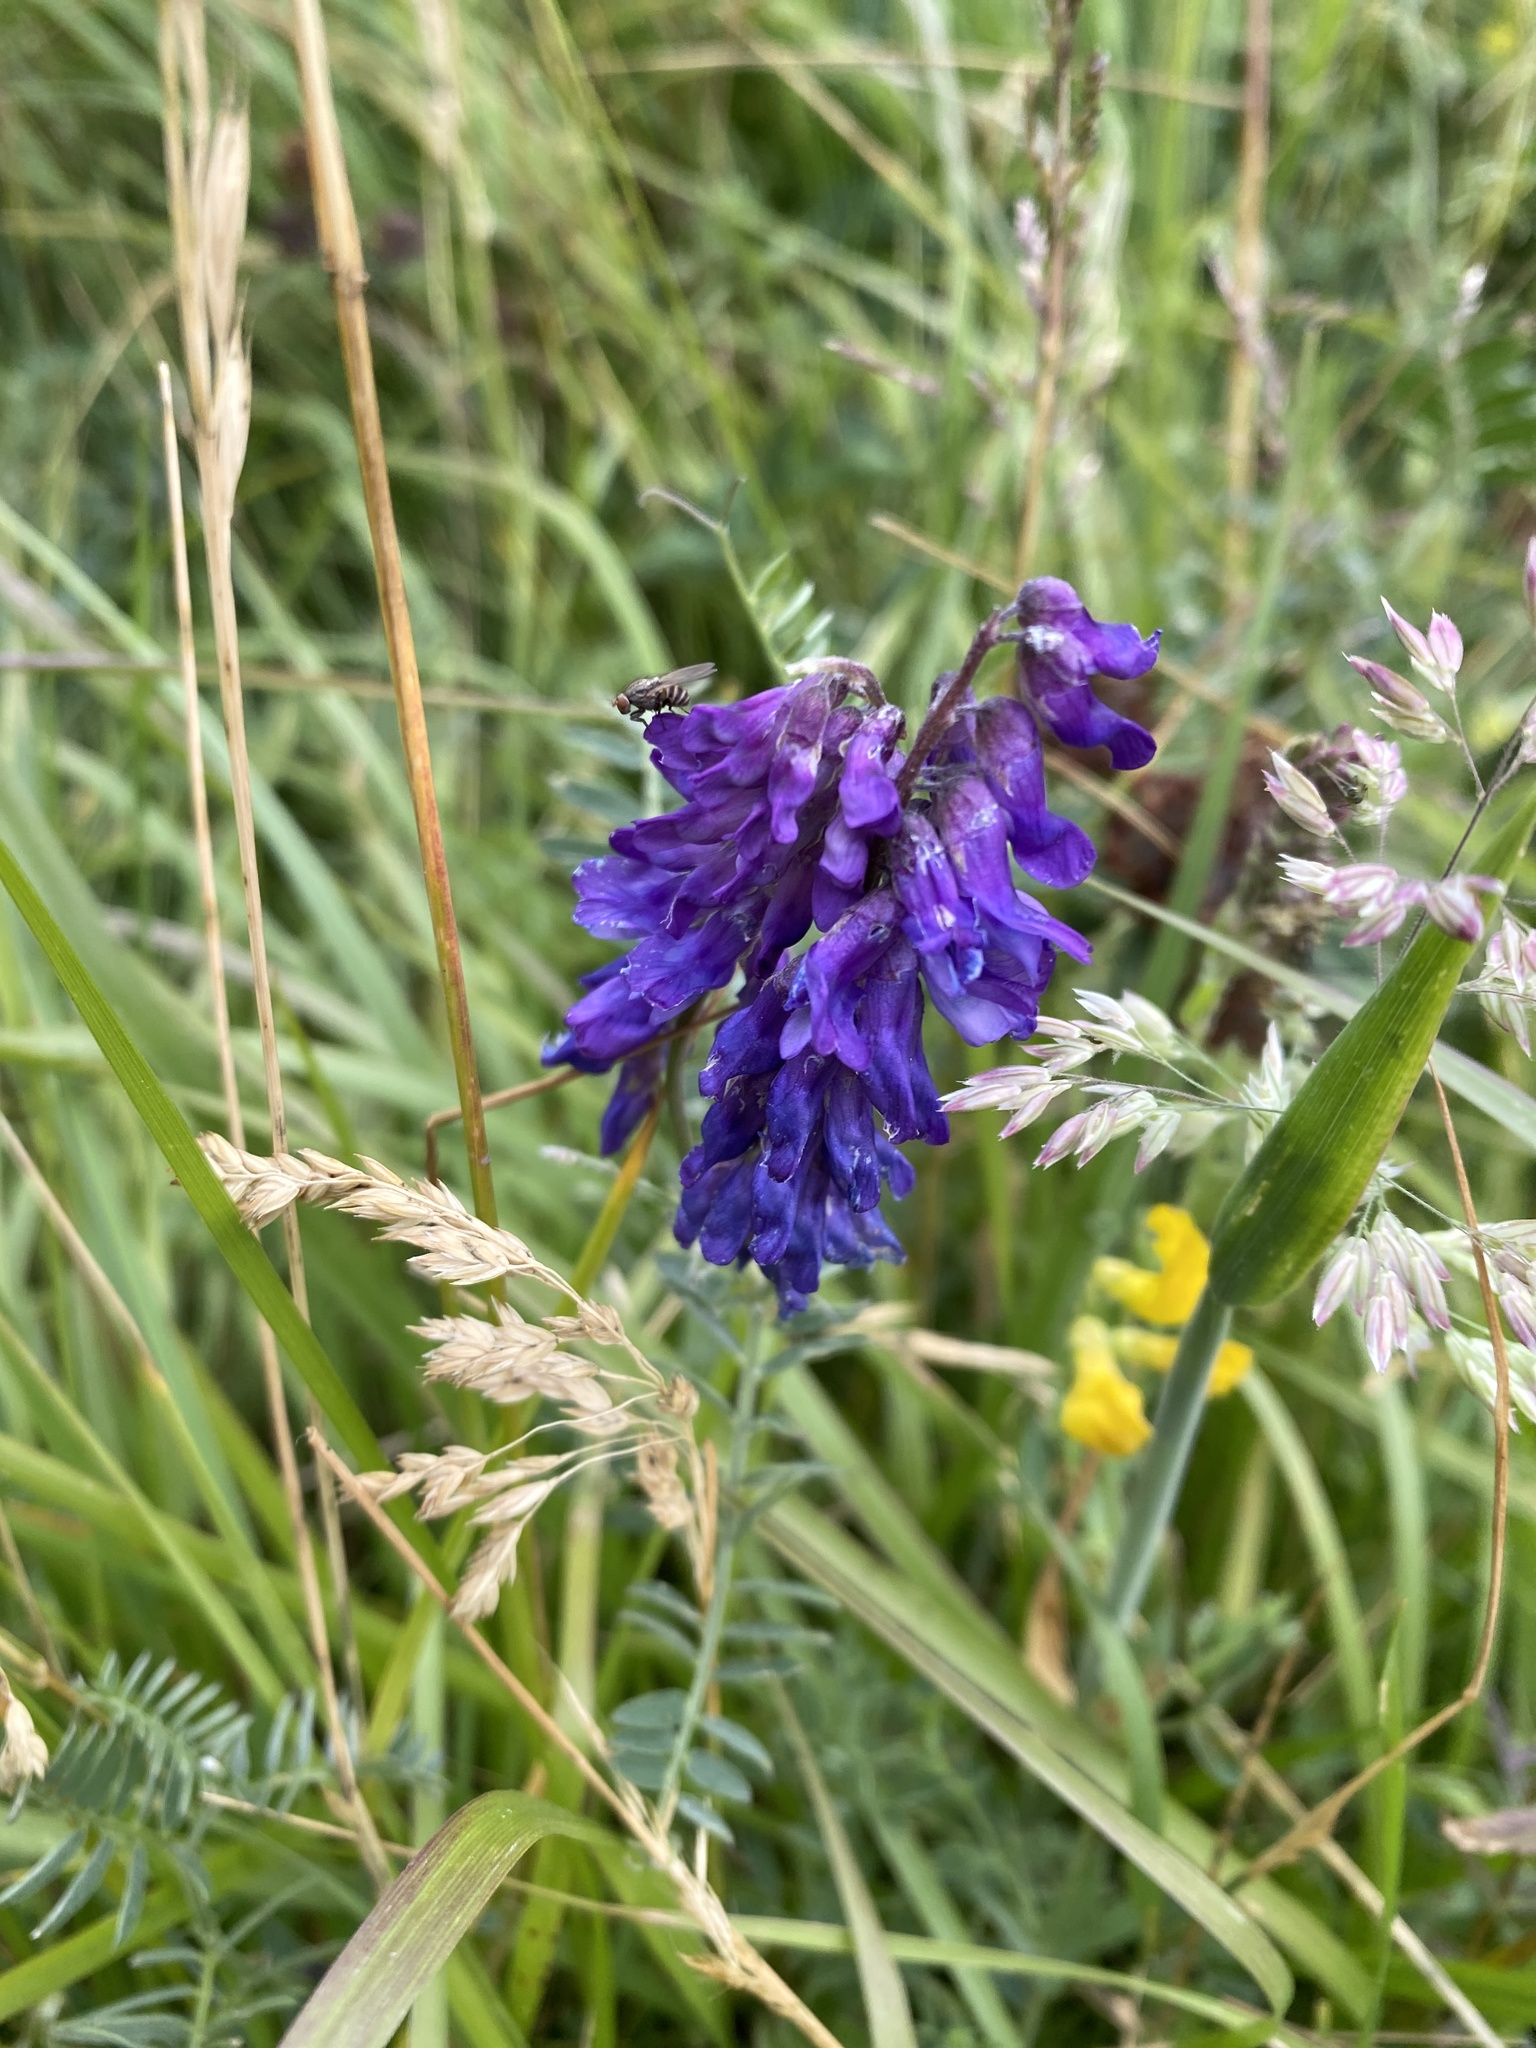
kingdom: Plantae
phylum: Tracheophyta
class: Magnoliopsida
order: Fabales
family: Fabaceae
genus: Vicia
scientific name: Vicia cracca
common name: Bird vetch
